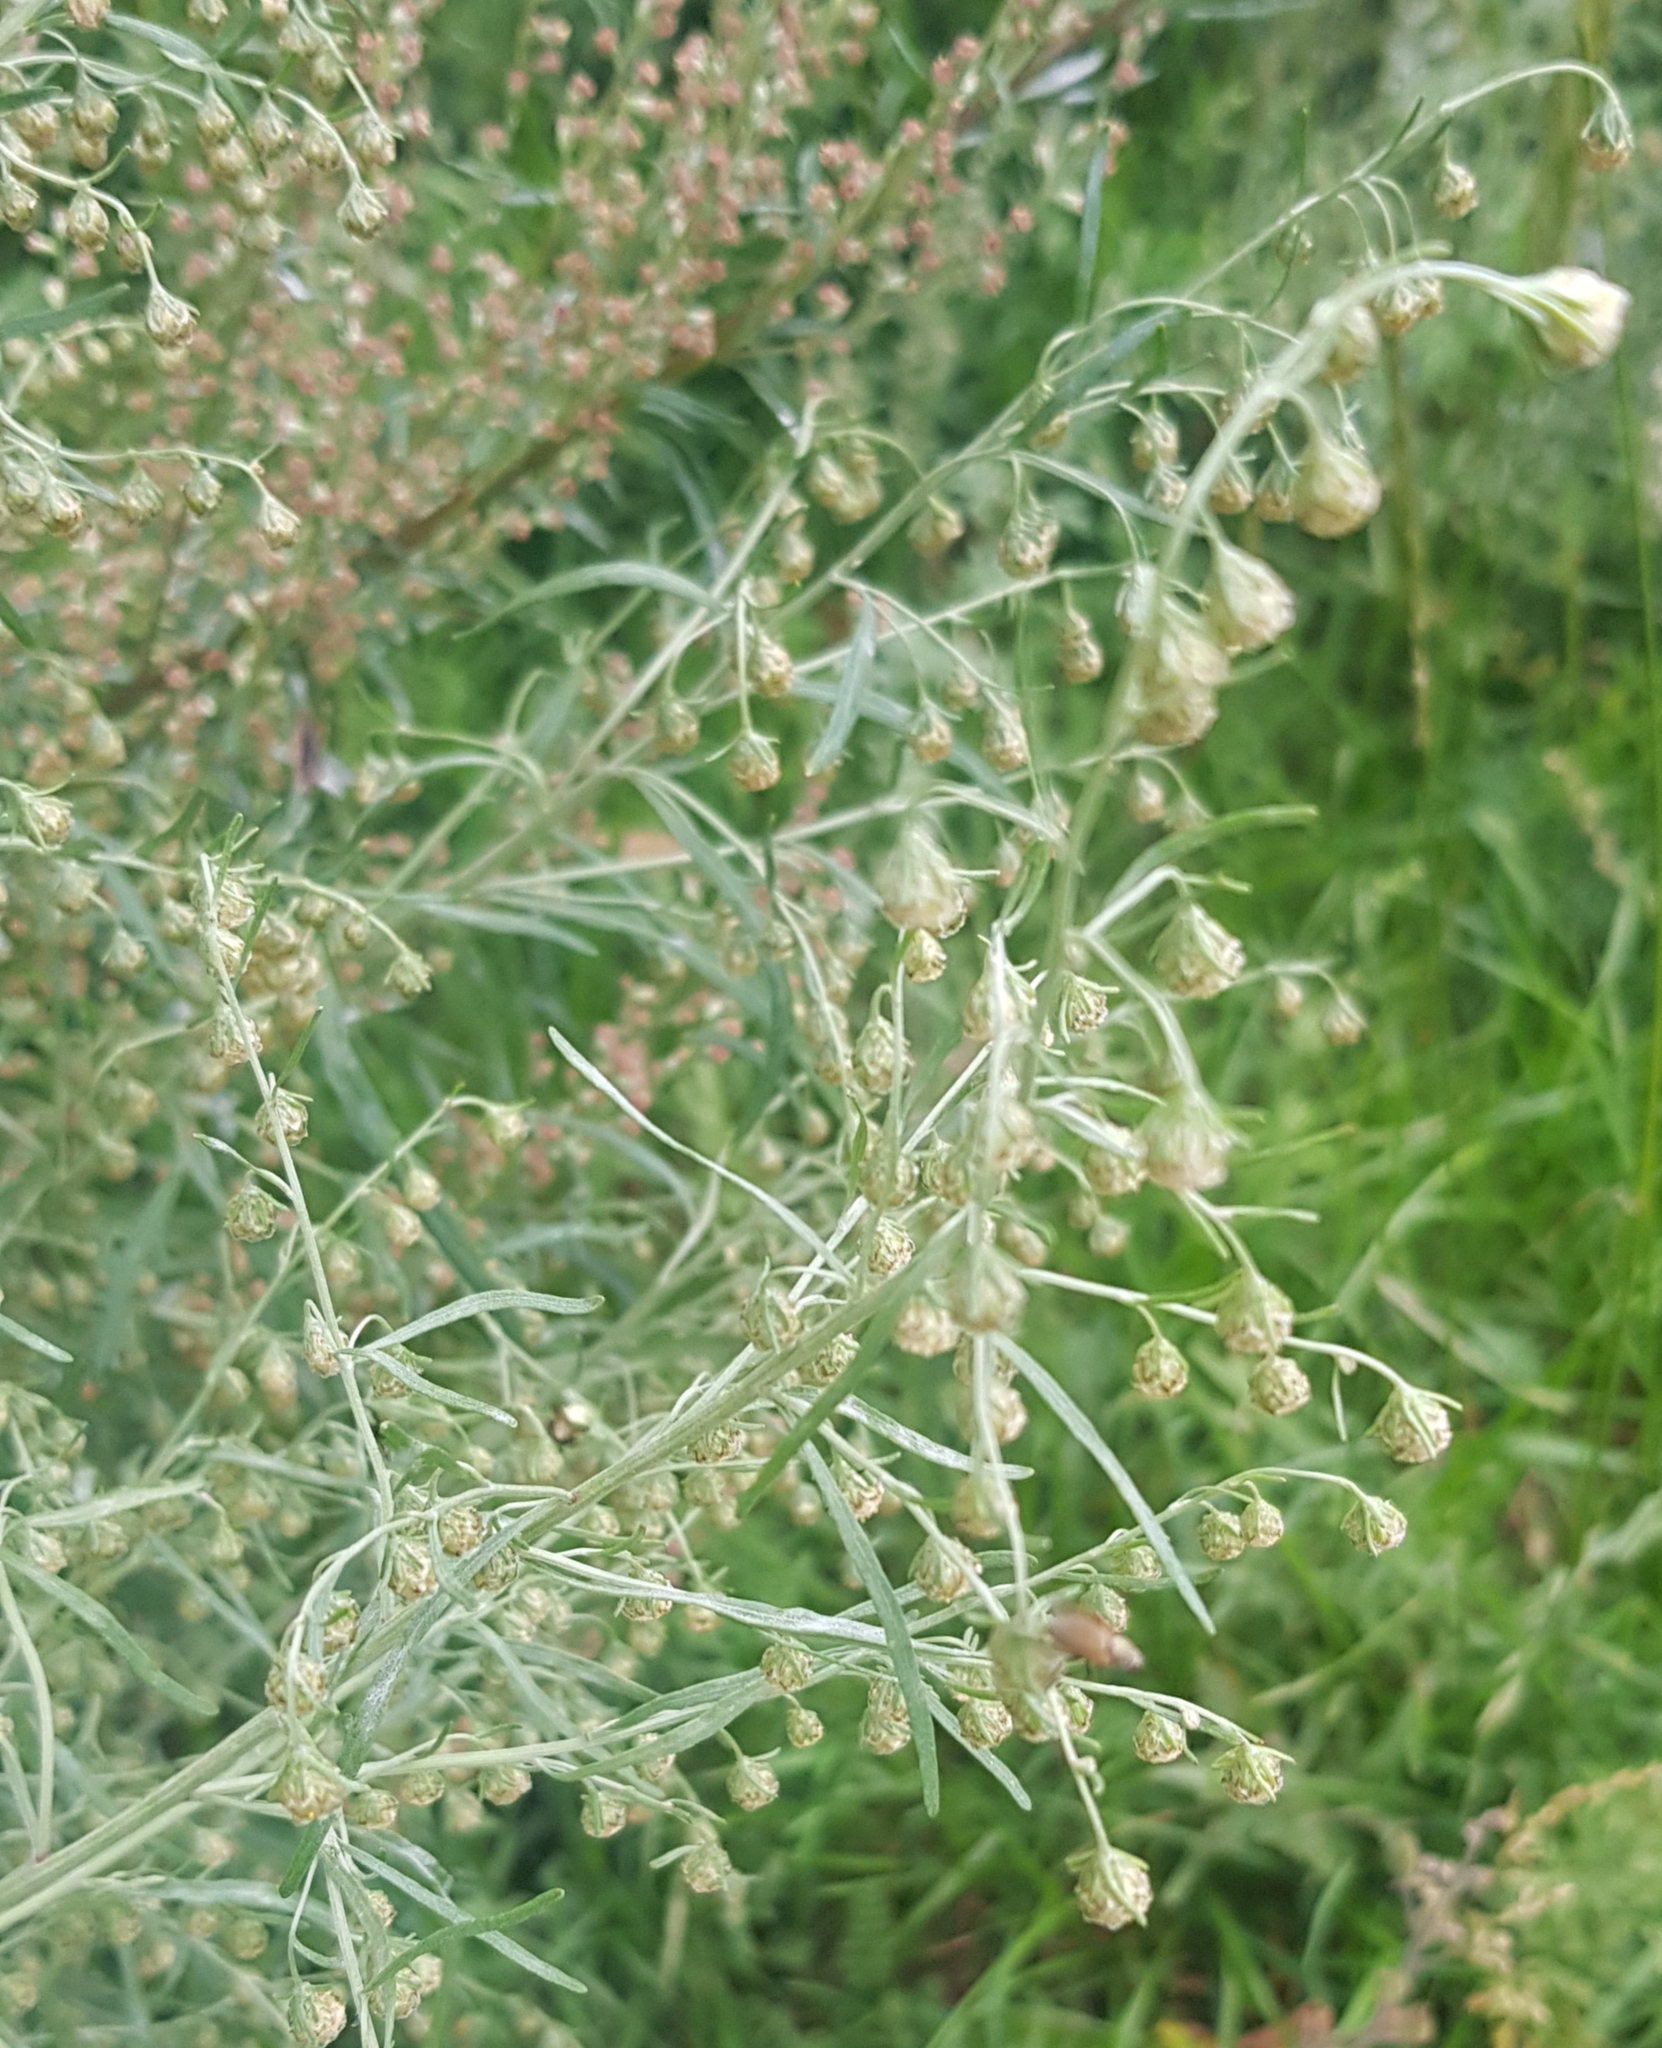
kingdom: Plantae
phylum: Tracheophyta
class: Magnoliopsida
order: Asterales
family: Asteraceae
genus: Artemisia
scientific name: Artemisia sieversiana
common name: Sieversian wormwood
